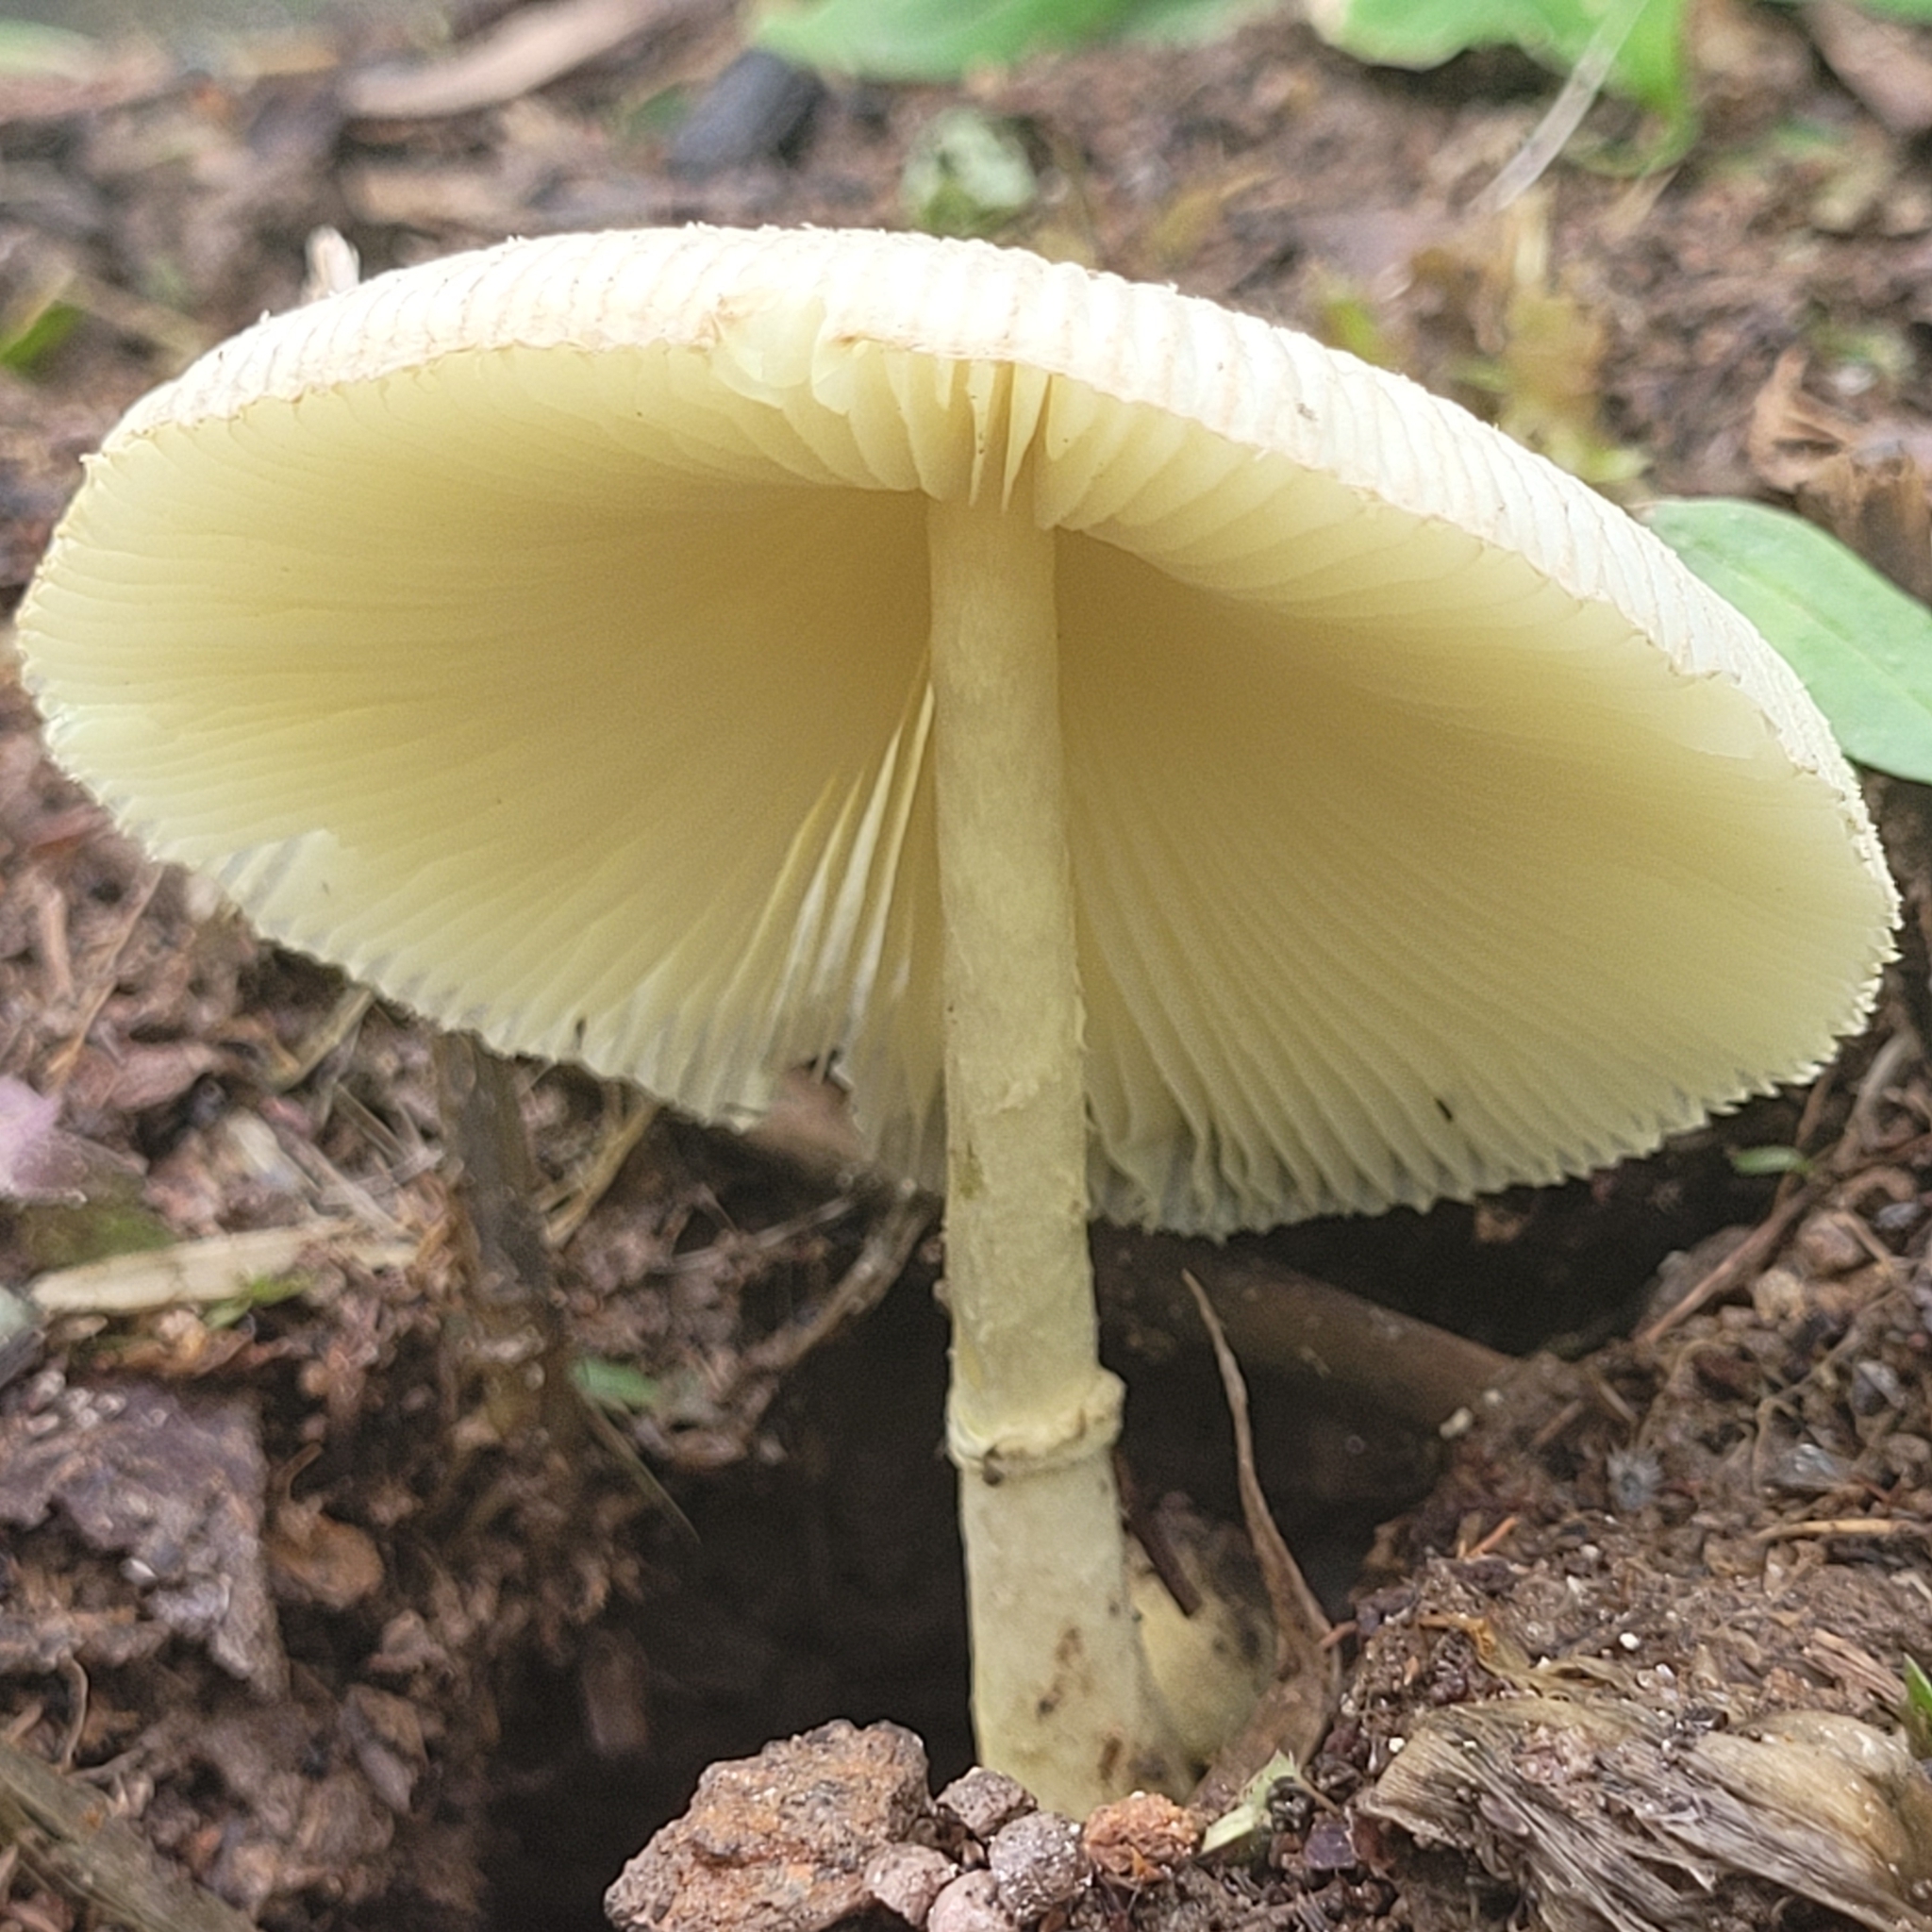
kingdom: Fungi
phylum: Basidiomycota
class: Agaricomycetes
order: Agaricales
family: Agaricaceae
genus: Leucocoprinus
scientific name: Leucocoprinus ianthinus
